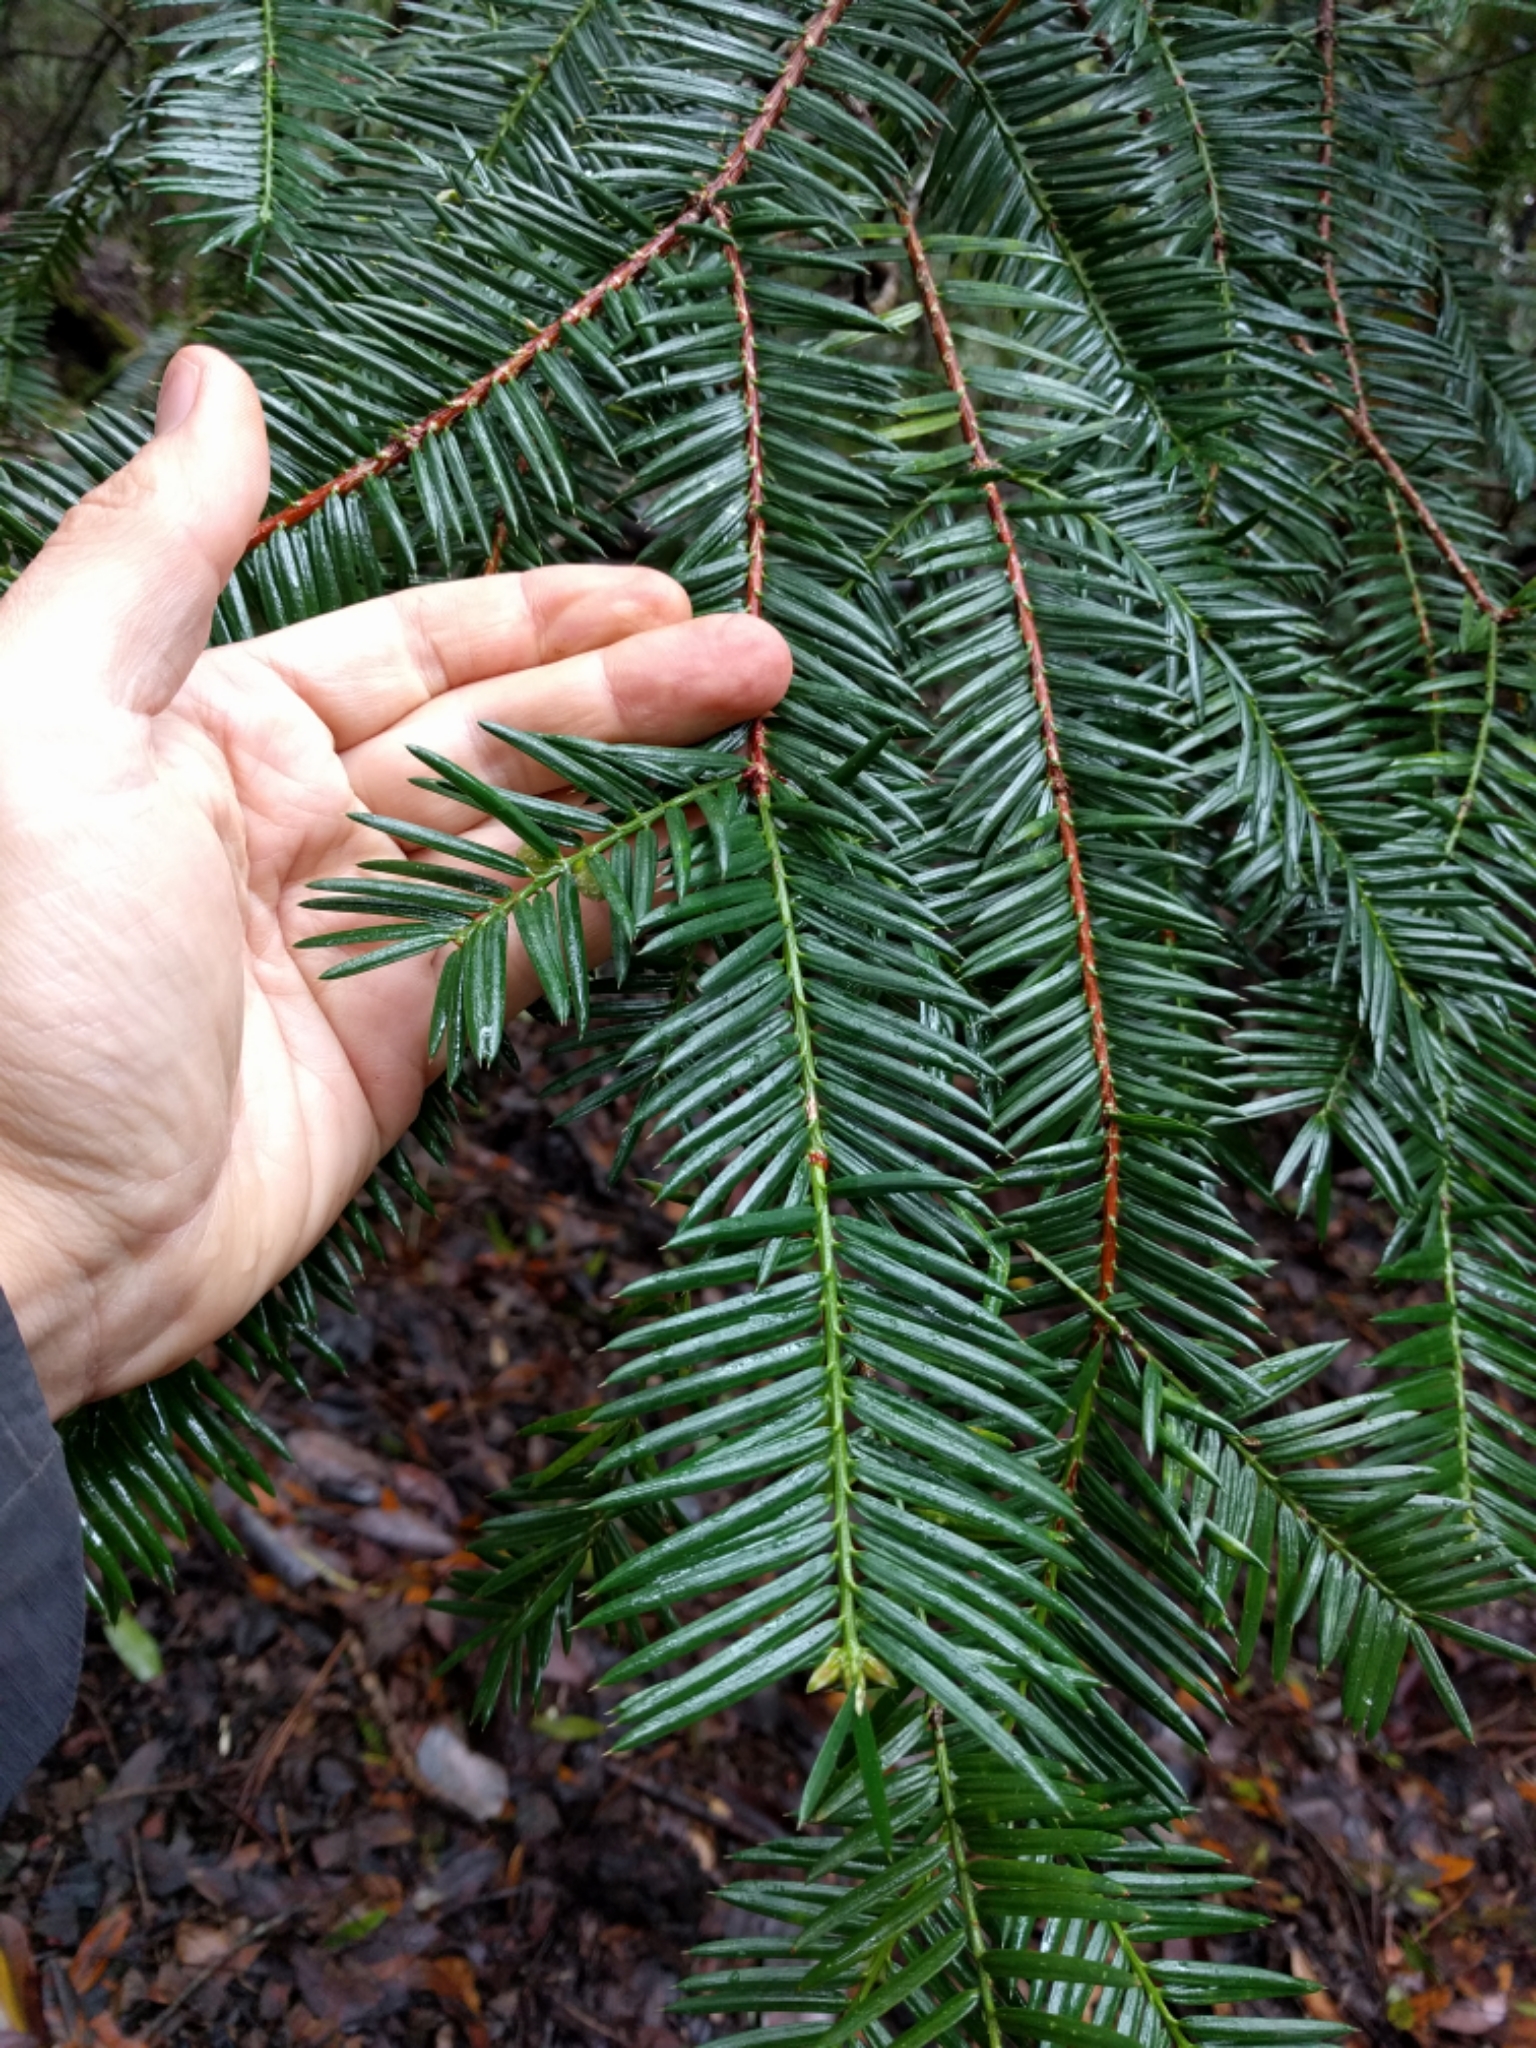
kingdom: Plantae
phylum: Tracheophyta
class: Pinopsida
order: Pinales
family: Taxaceae
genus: Torreya
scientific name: Torreya californica
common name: California torreya
